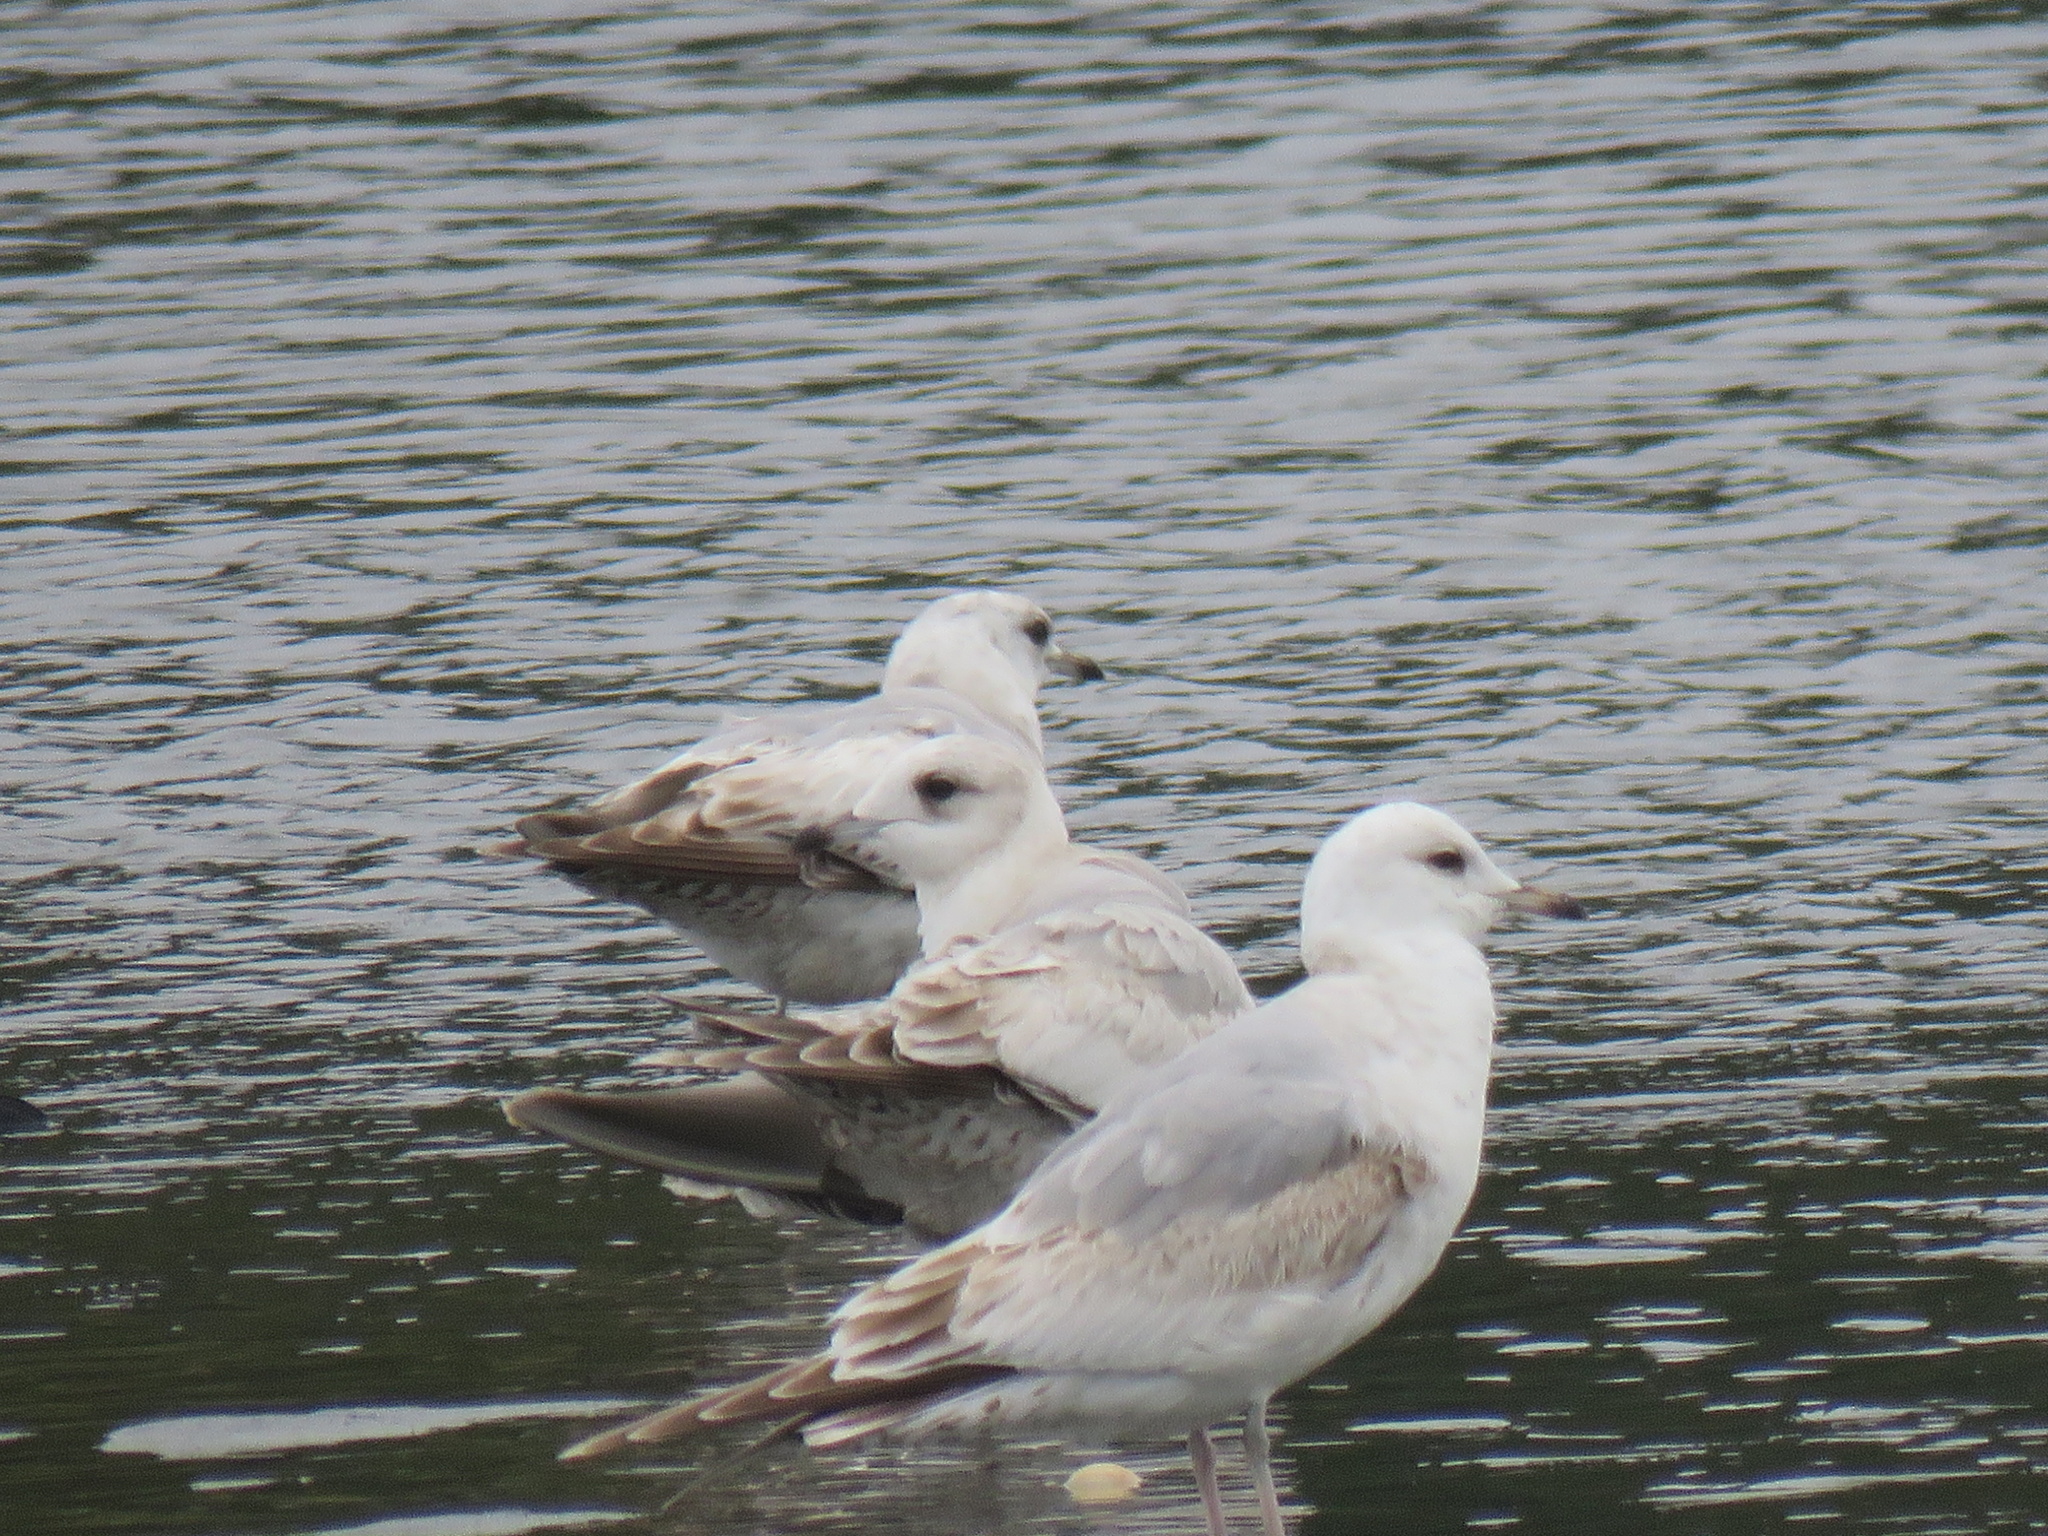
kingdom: Animalia
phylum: Chordata
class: Aves
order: Charadriiformes
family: Laridae
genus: Larus
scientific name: Larus brachyrhynchus
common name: Short-billed gull
